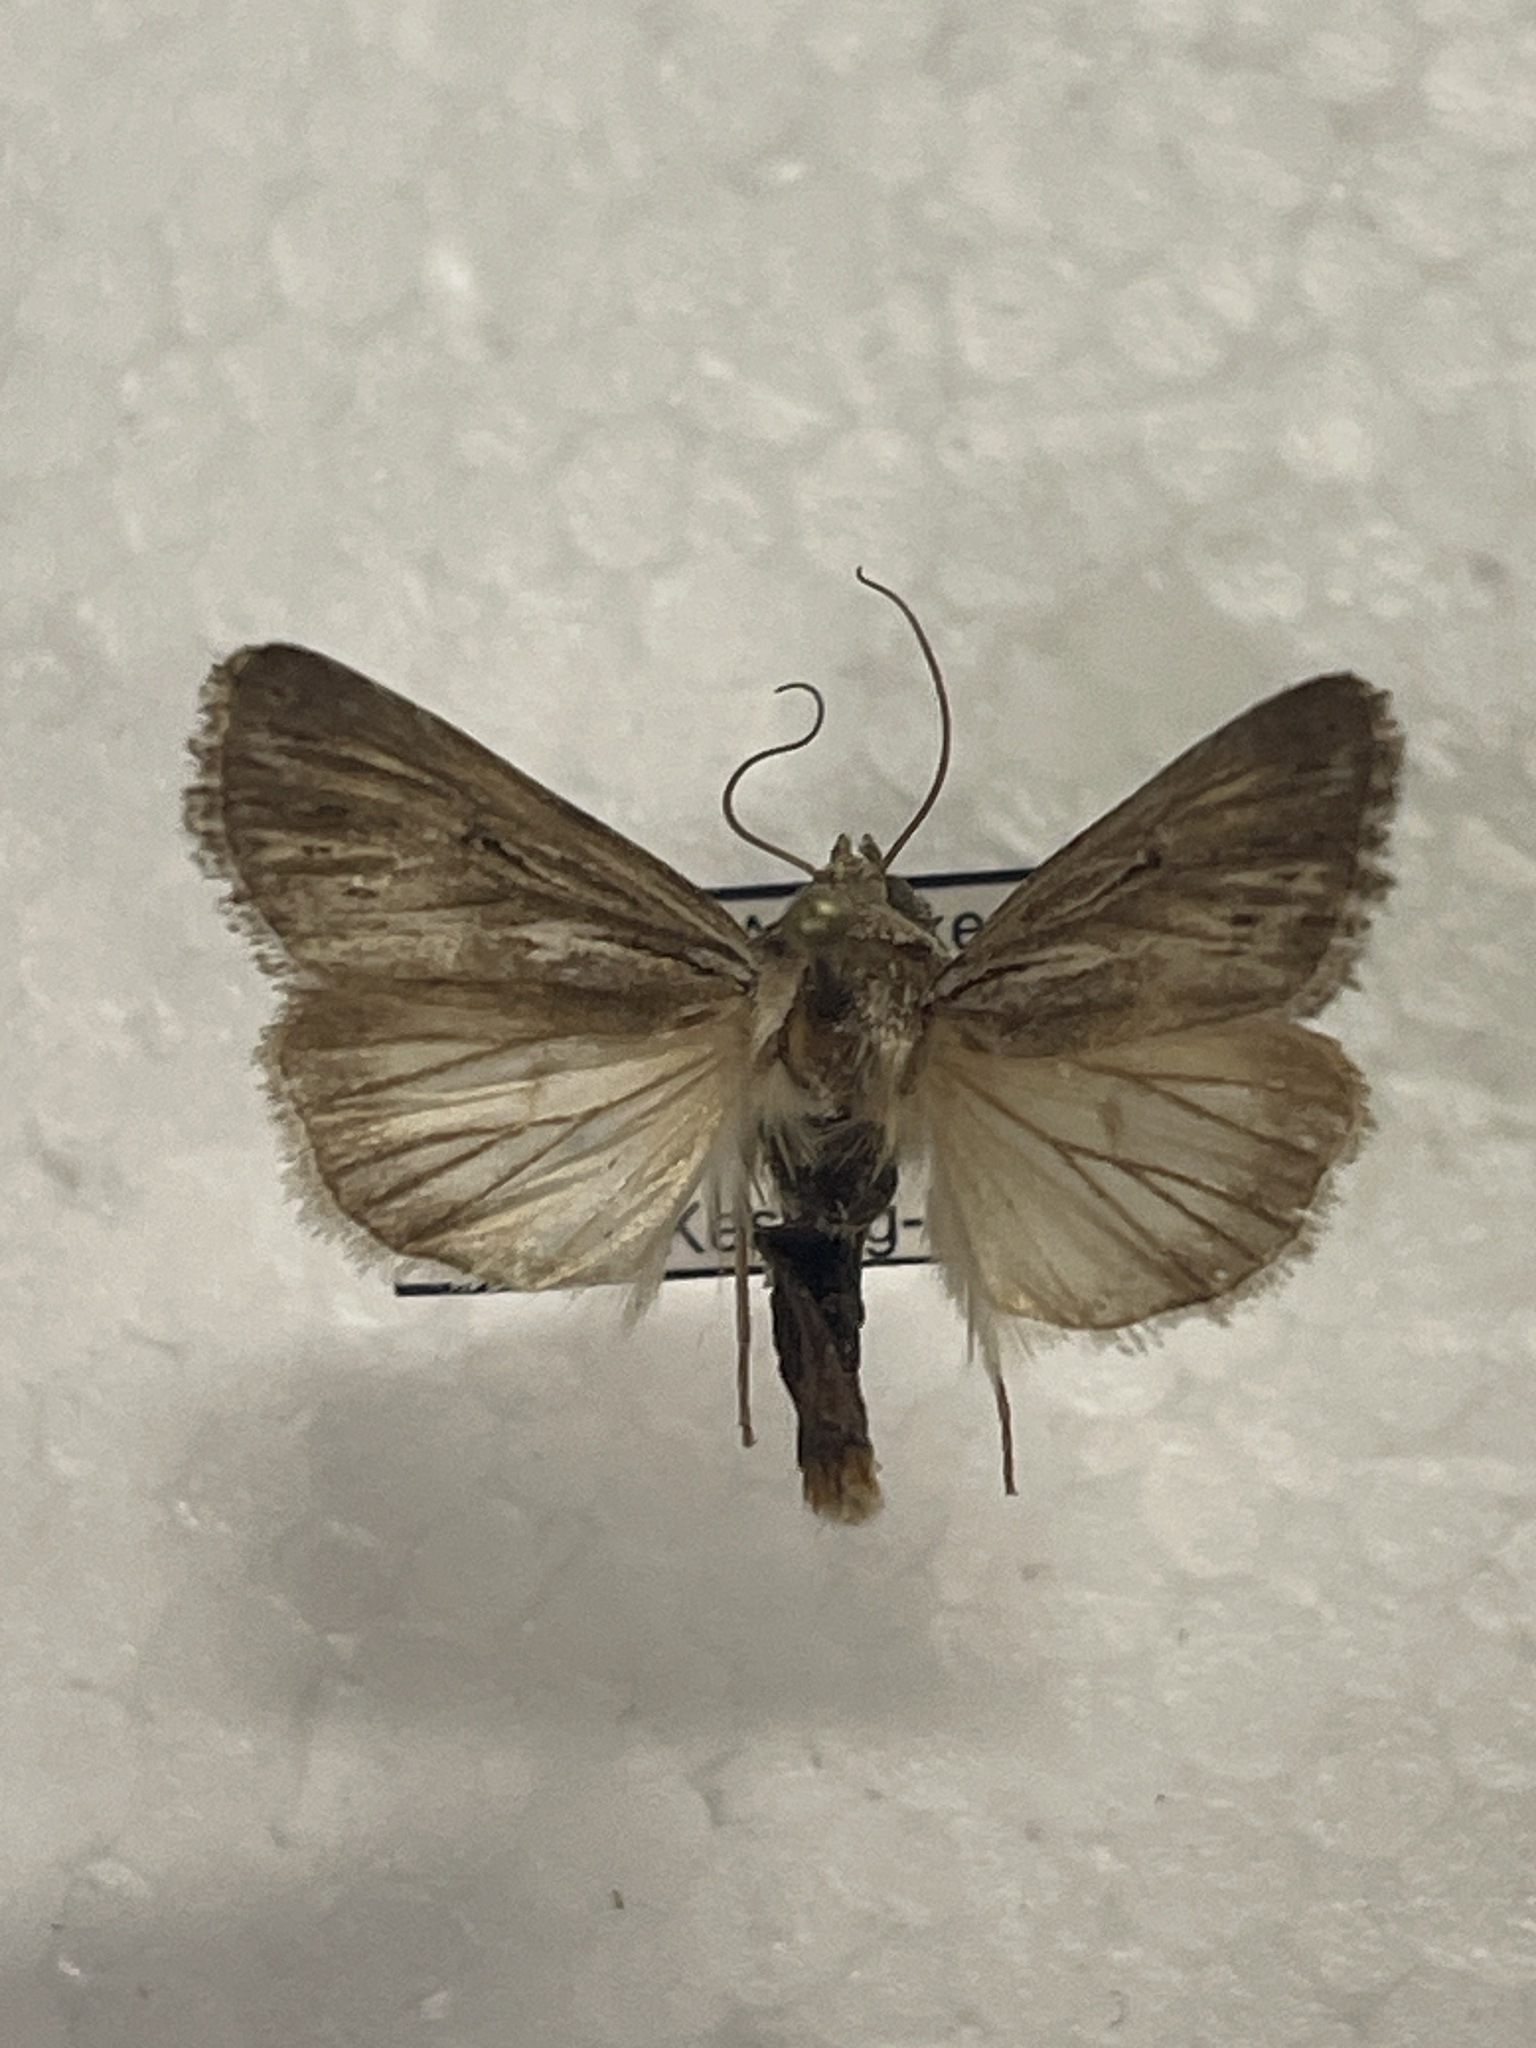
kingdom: Animalia
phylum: Arthropoda
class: Insecta
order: Lepidoptera
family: Noctuidae
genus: Sympistis
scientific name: Sympistis riparia
